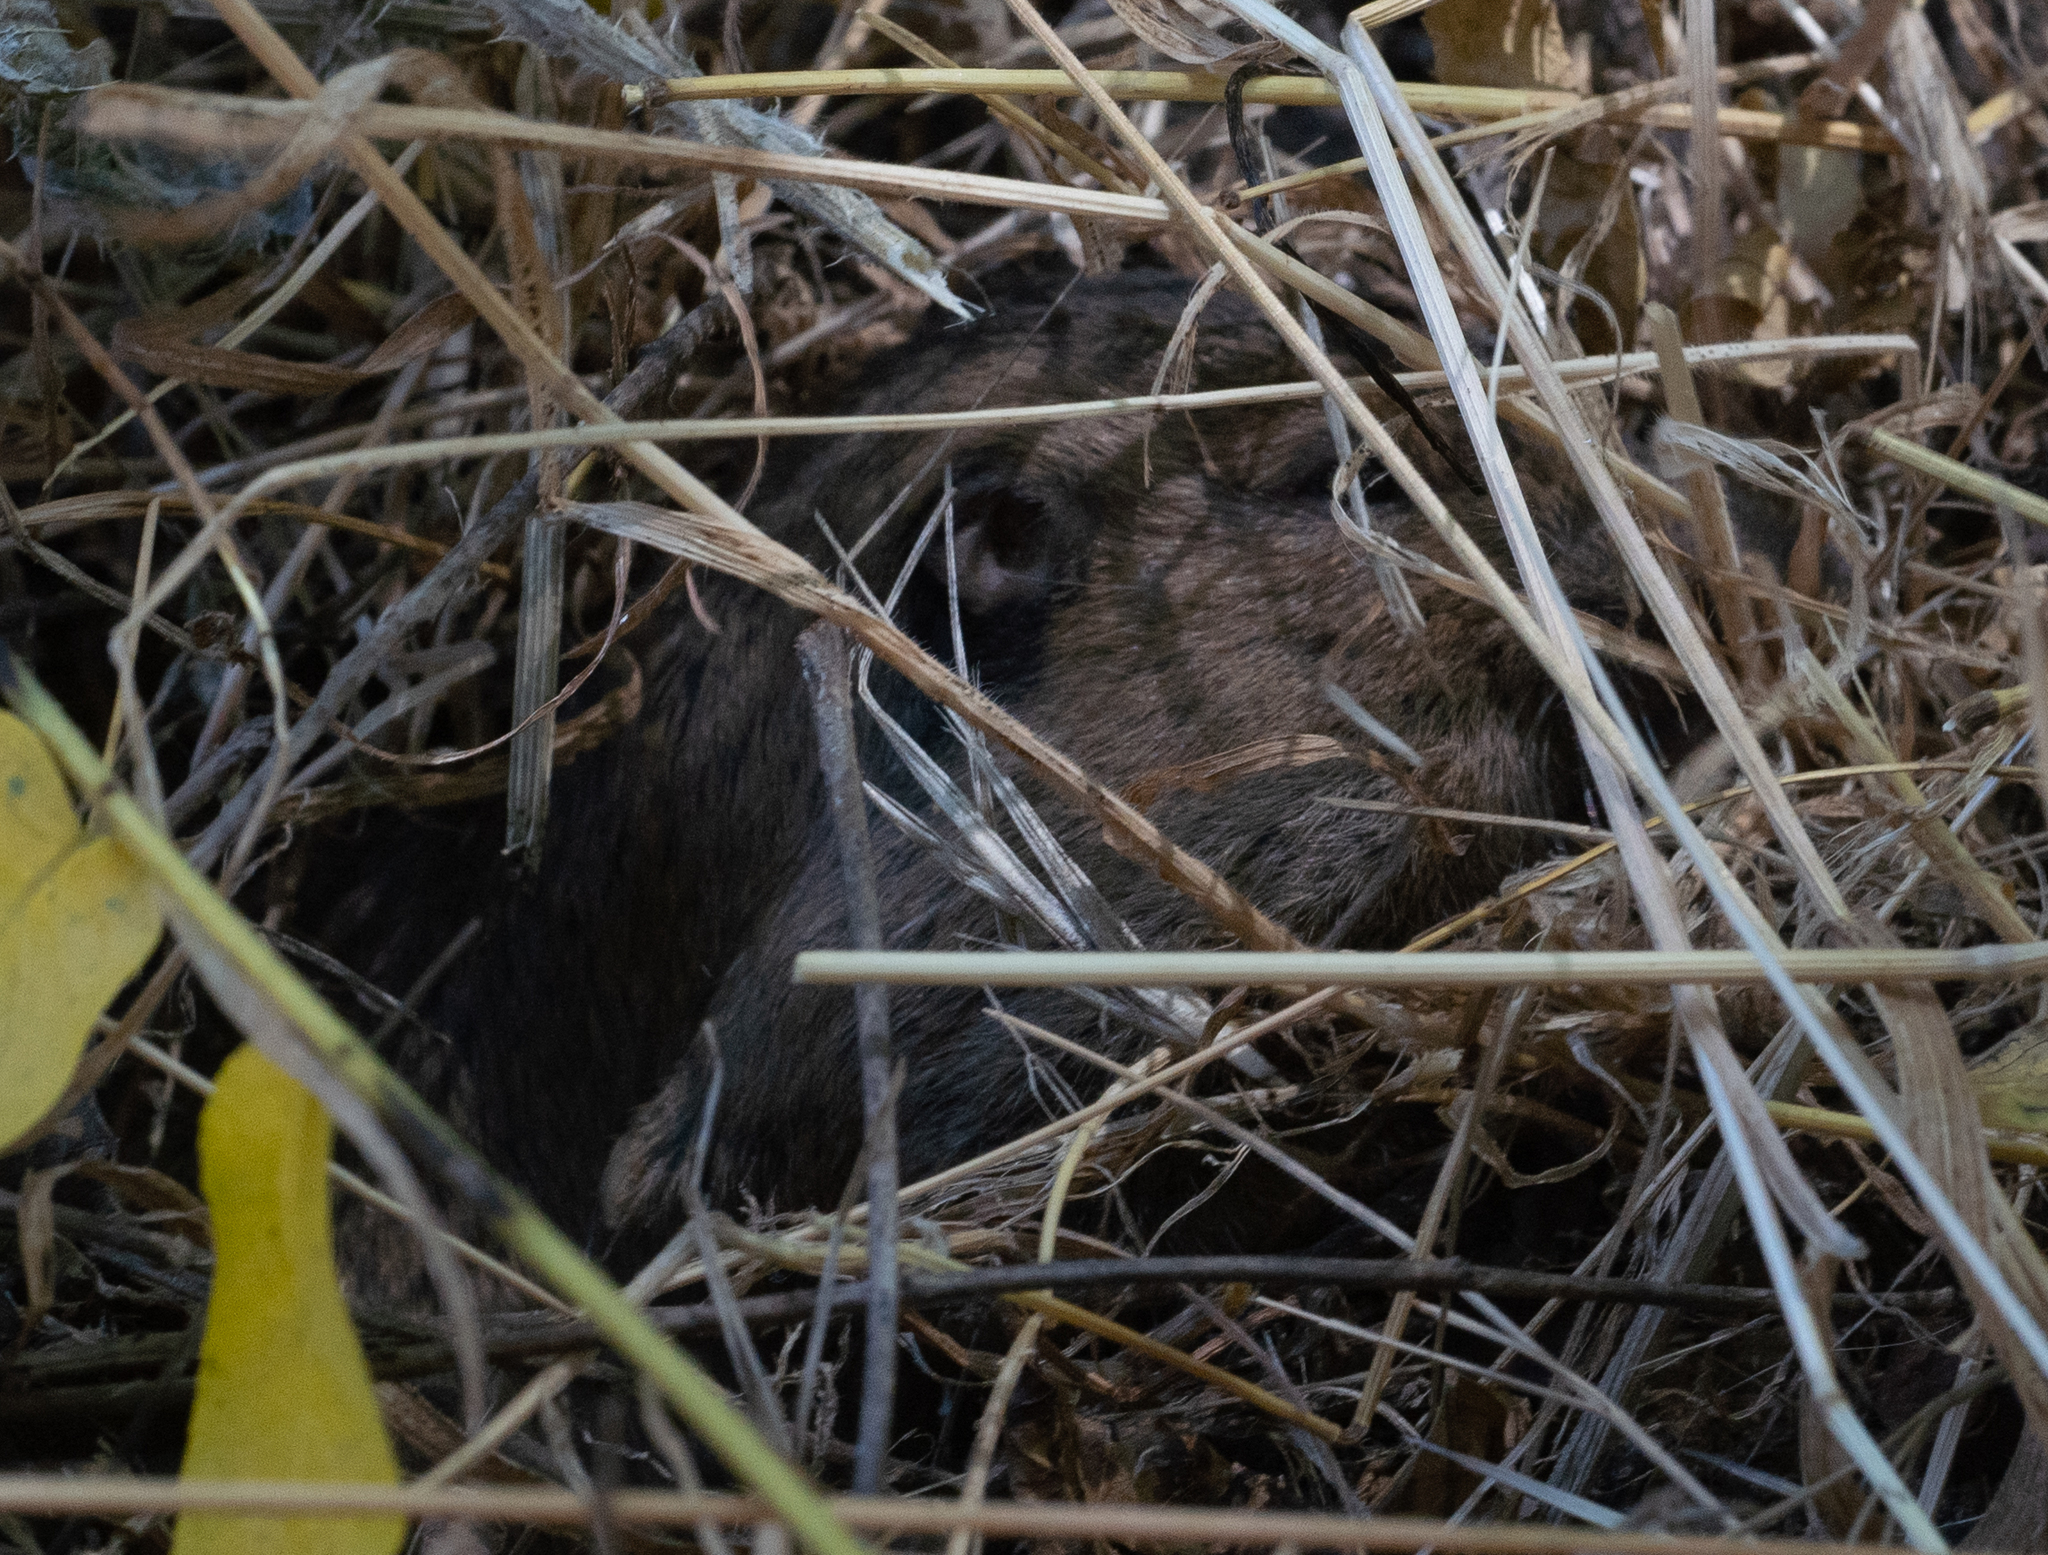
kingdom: Animalia
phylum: Chordata
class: Mammalia
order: Rodentia
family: Geomyidae
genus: Thomomys
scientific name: Thomomys bottae
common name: Botta's pocket gopher
